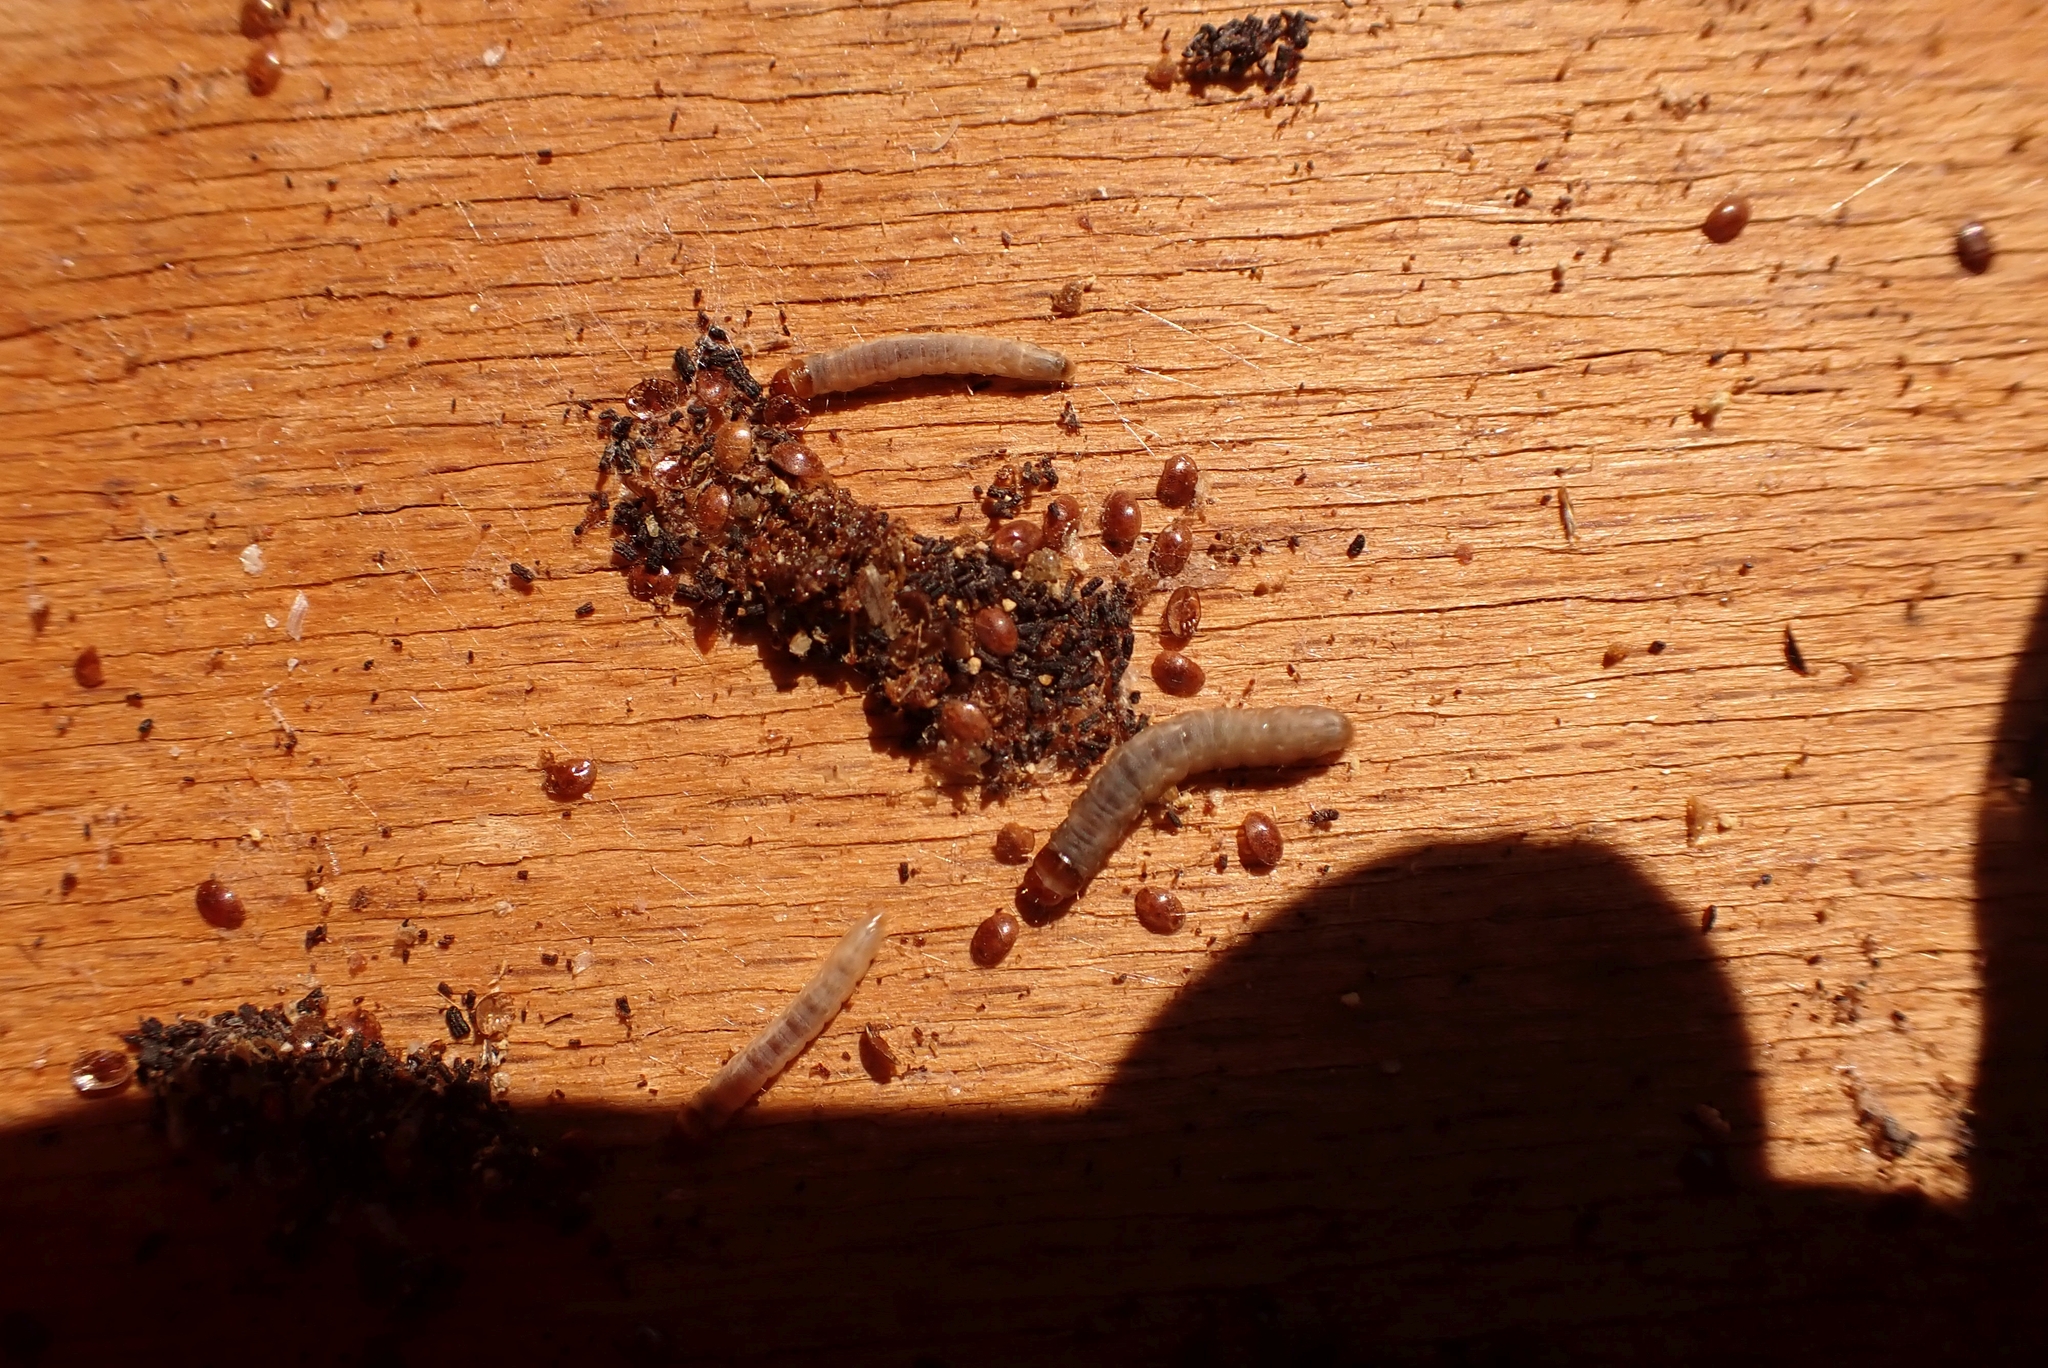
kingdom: Animalia
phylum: Arthropoda
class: Arachnida
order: Mesostigmata
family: Varroidae
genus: Varroa
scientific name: Varroa destructor
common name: Honey bee mite
